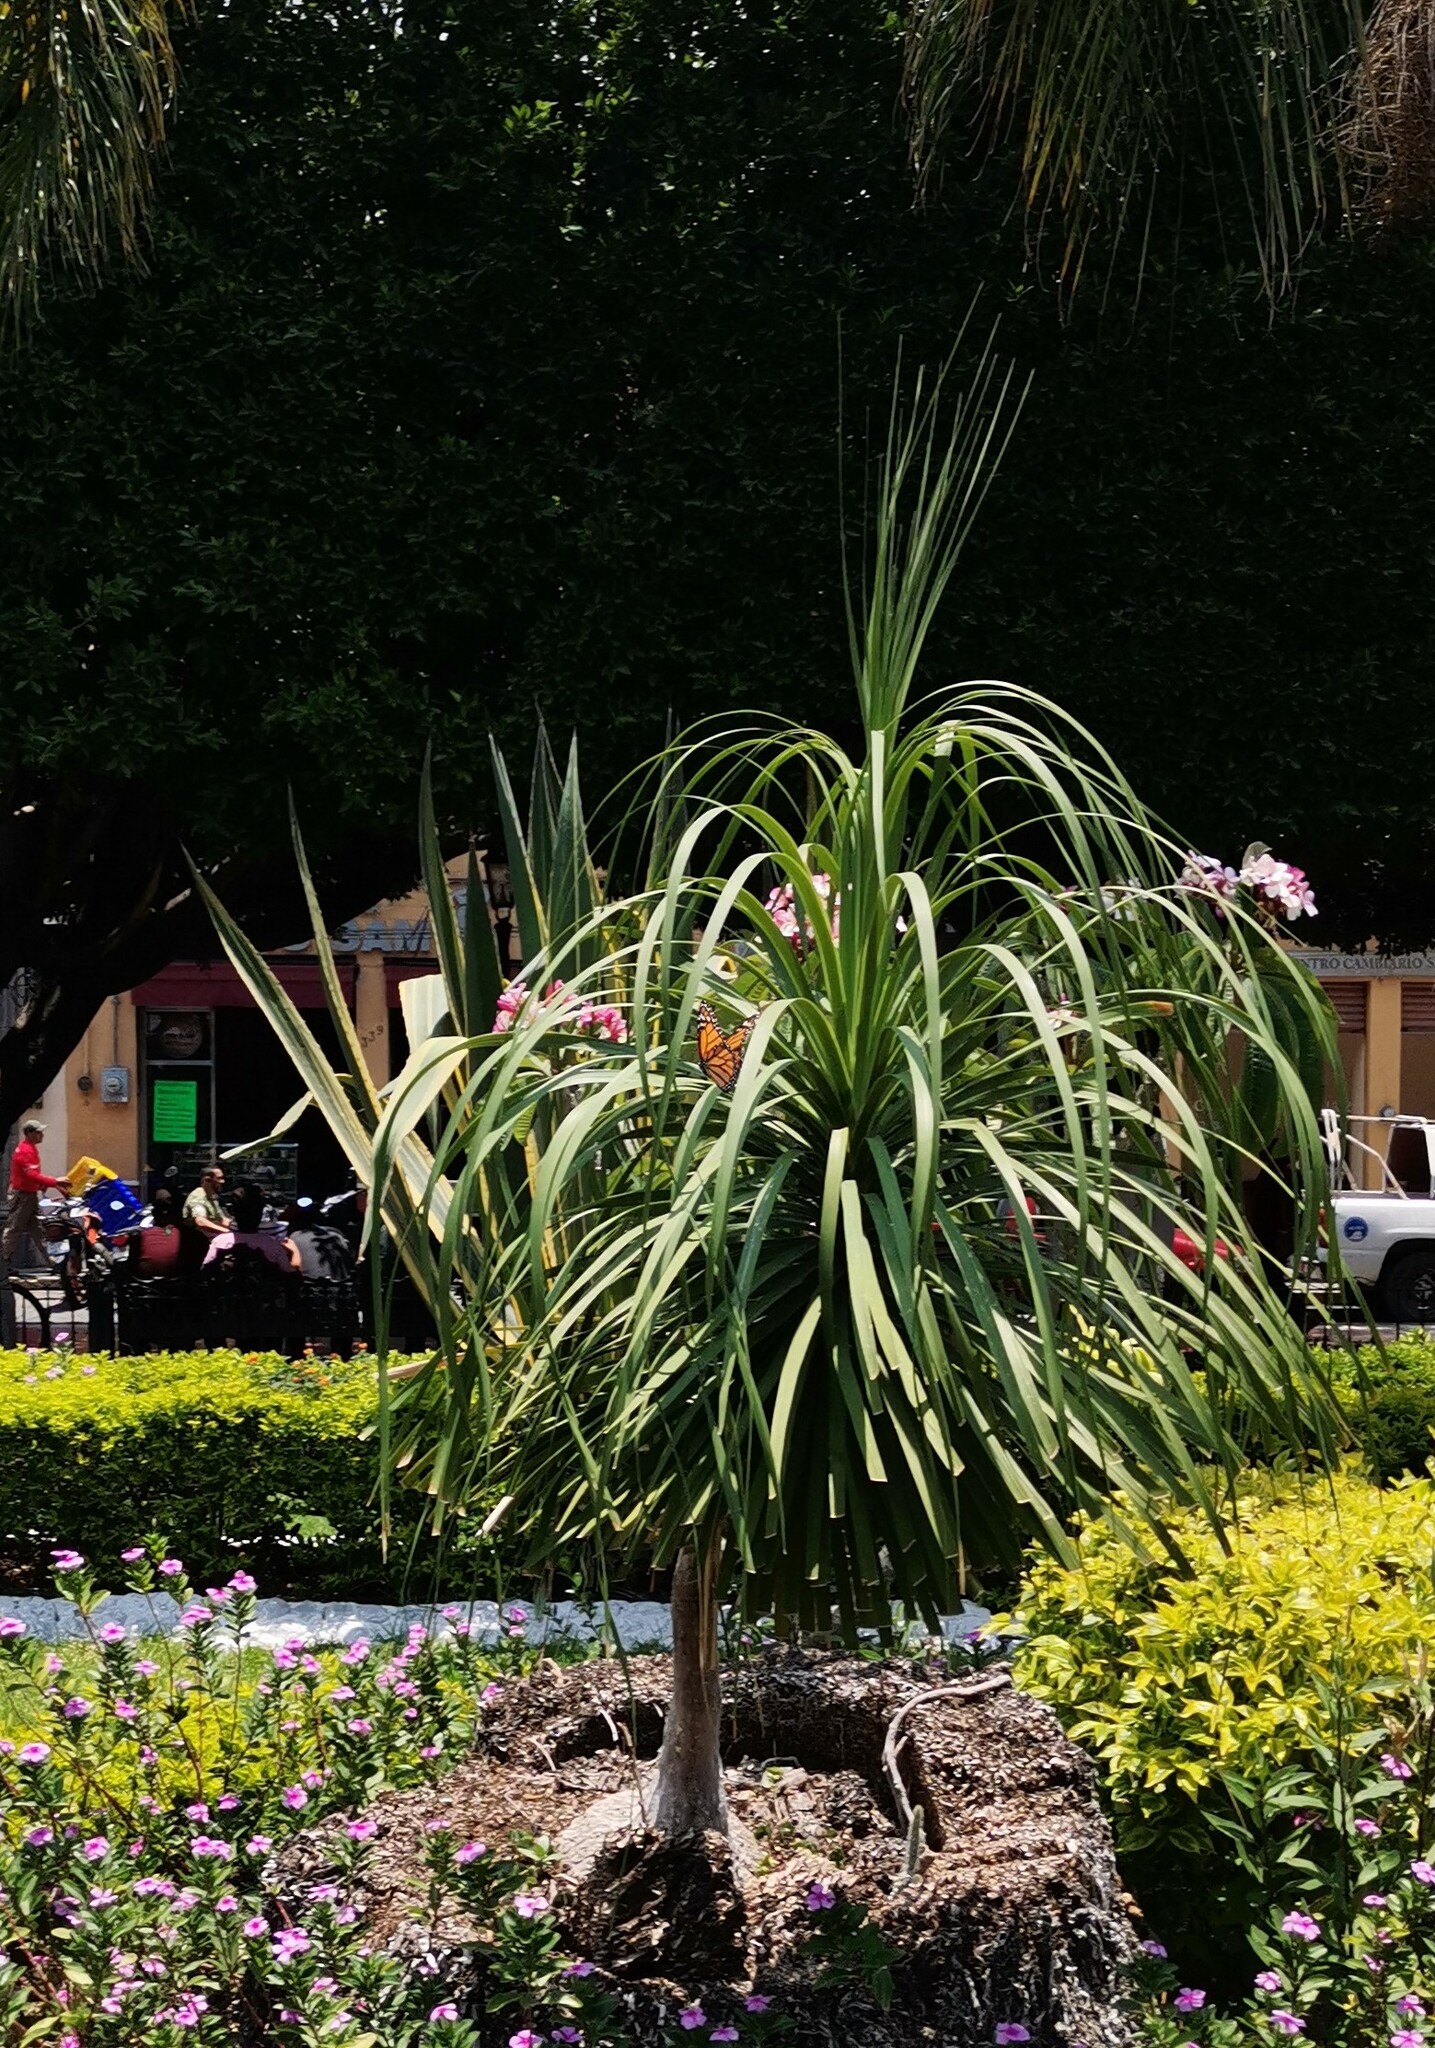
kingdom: Animalia
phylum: Arthropoda
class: Insecta
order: Lepidoptera
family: Nymphalidae
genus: Danaus
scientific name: Danaus plexippus
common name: Monarch
